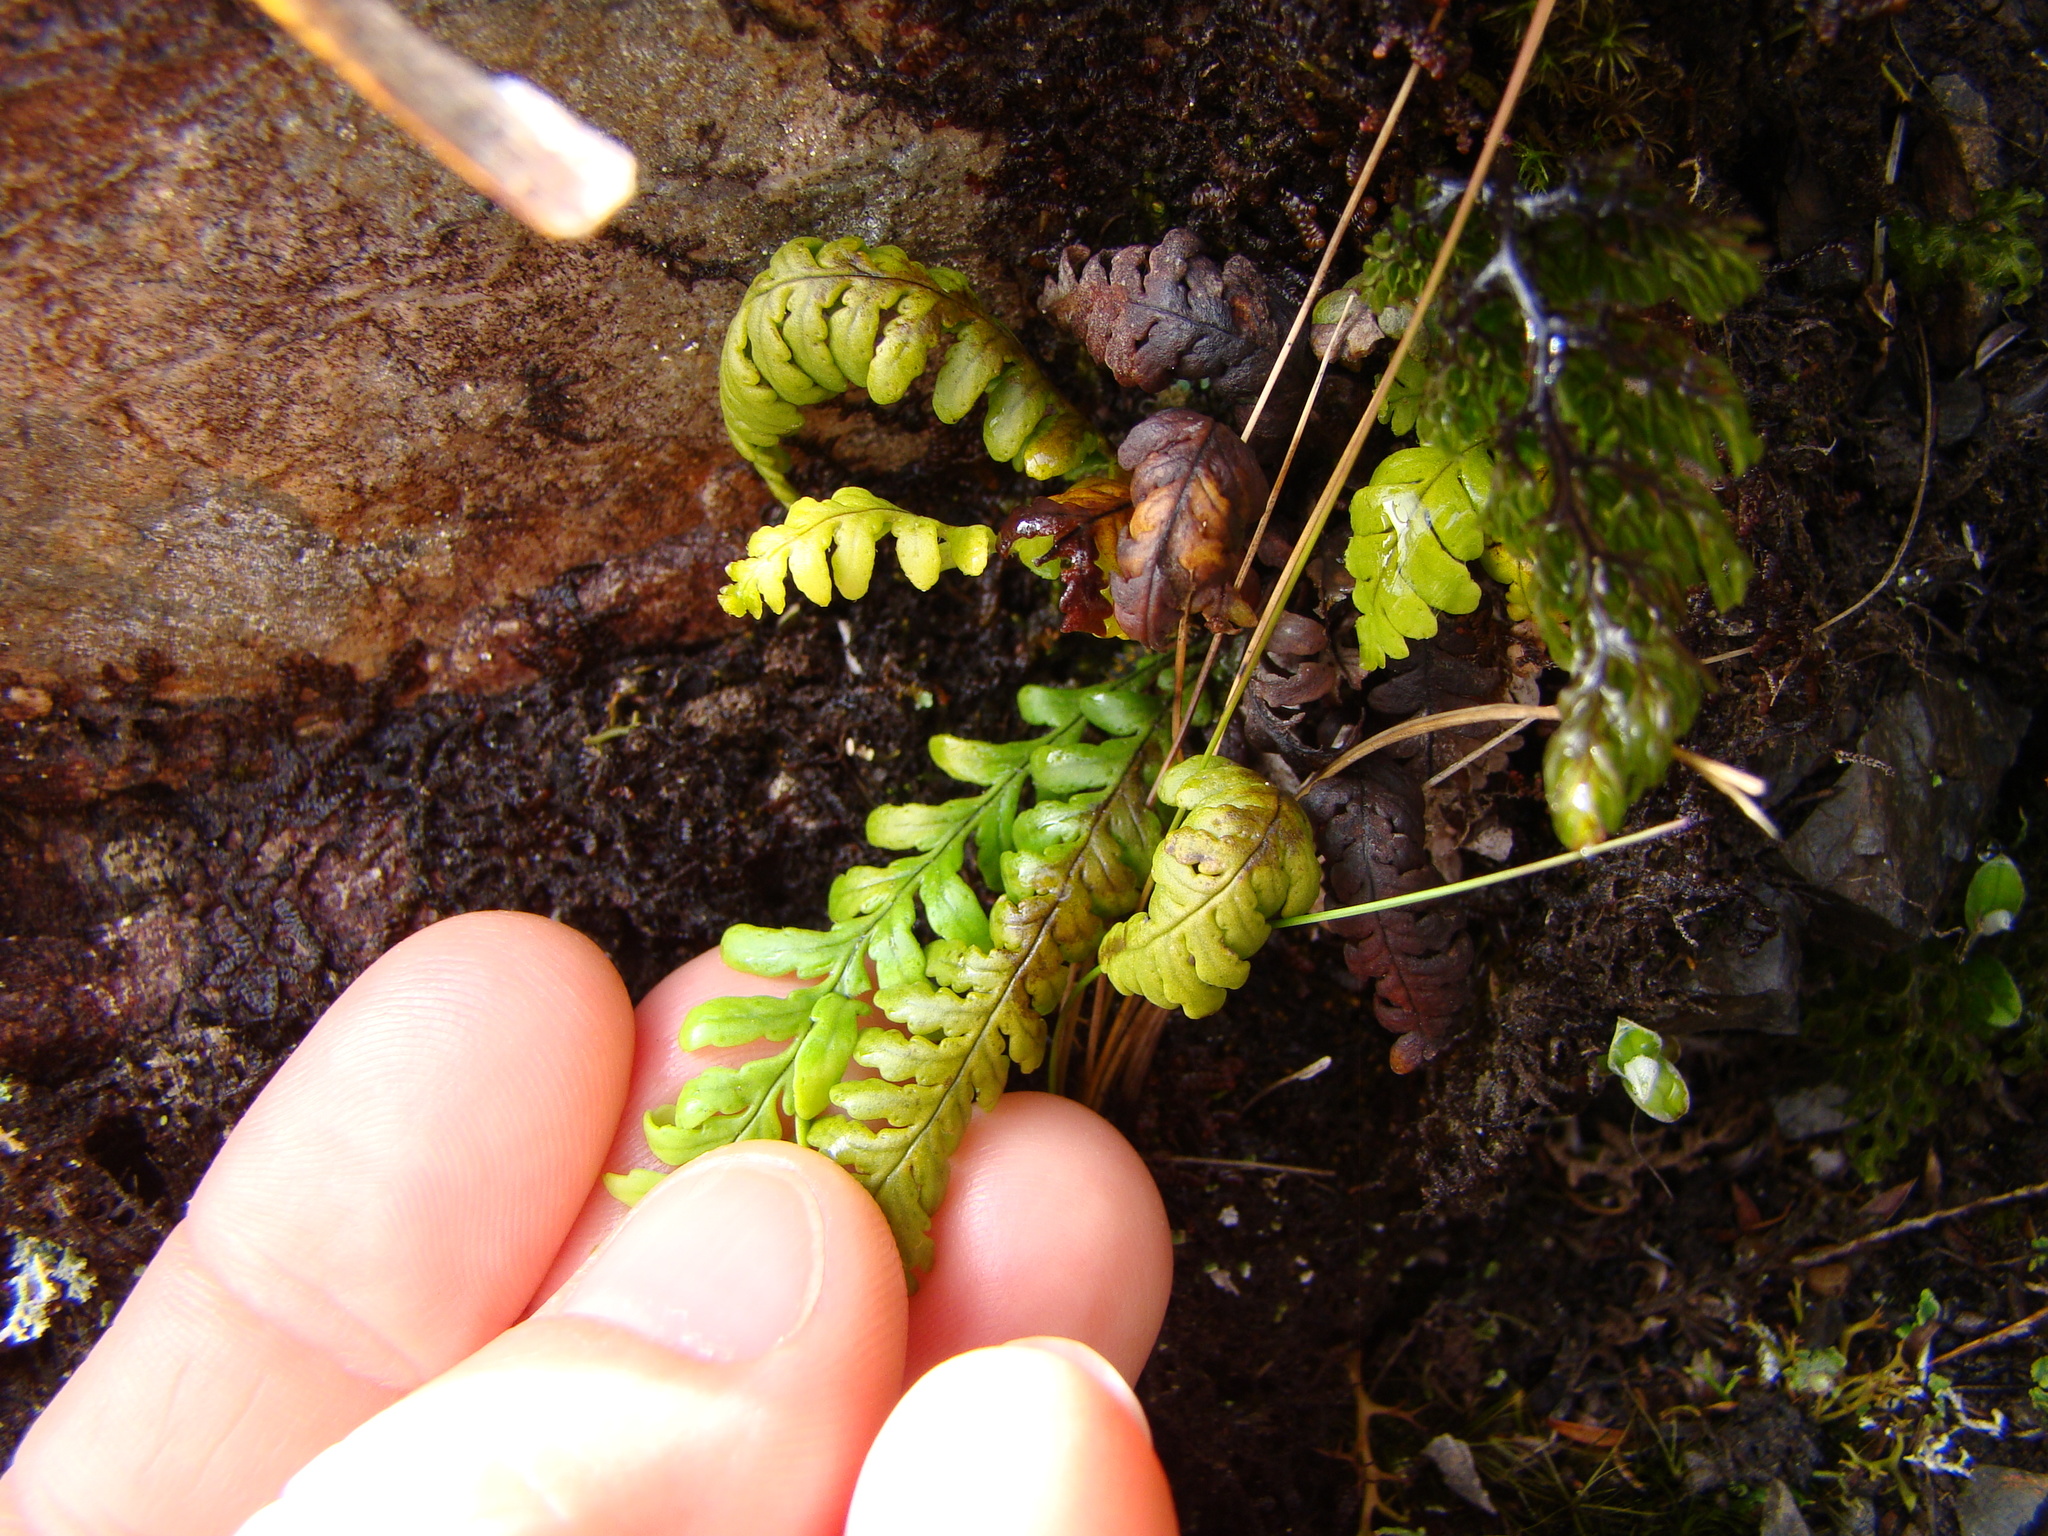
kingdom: Plantae
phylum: Tracheophyta
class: Polypodiopsida
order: Polypodiales
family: Polypodiaceae
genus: Notogrammitis
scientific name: Notogrammitis heterophylla
